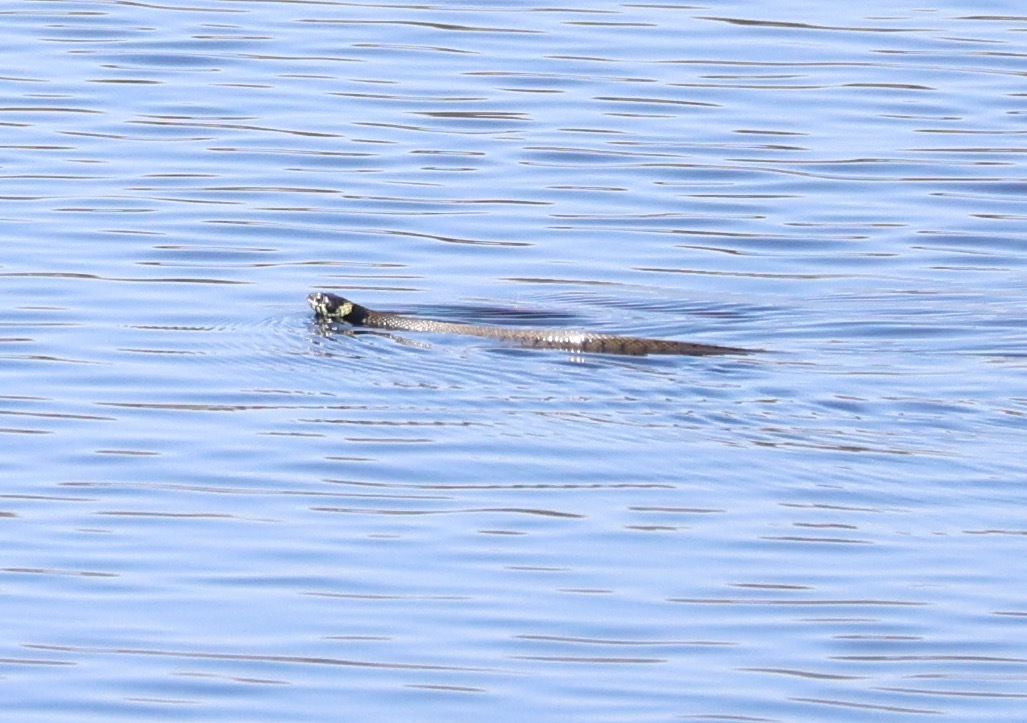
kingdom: Animalia
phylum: Chordata
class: Squamata
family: Colubridae
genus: Natrix
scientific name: Natrix helvetica
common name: Banded grass snake
